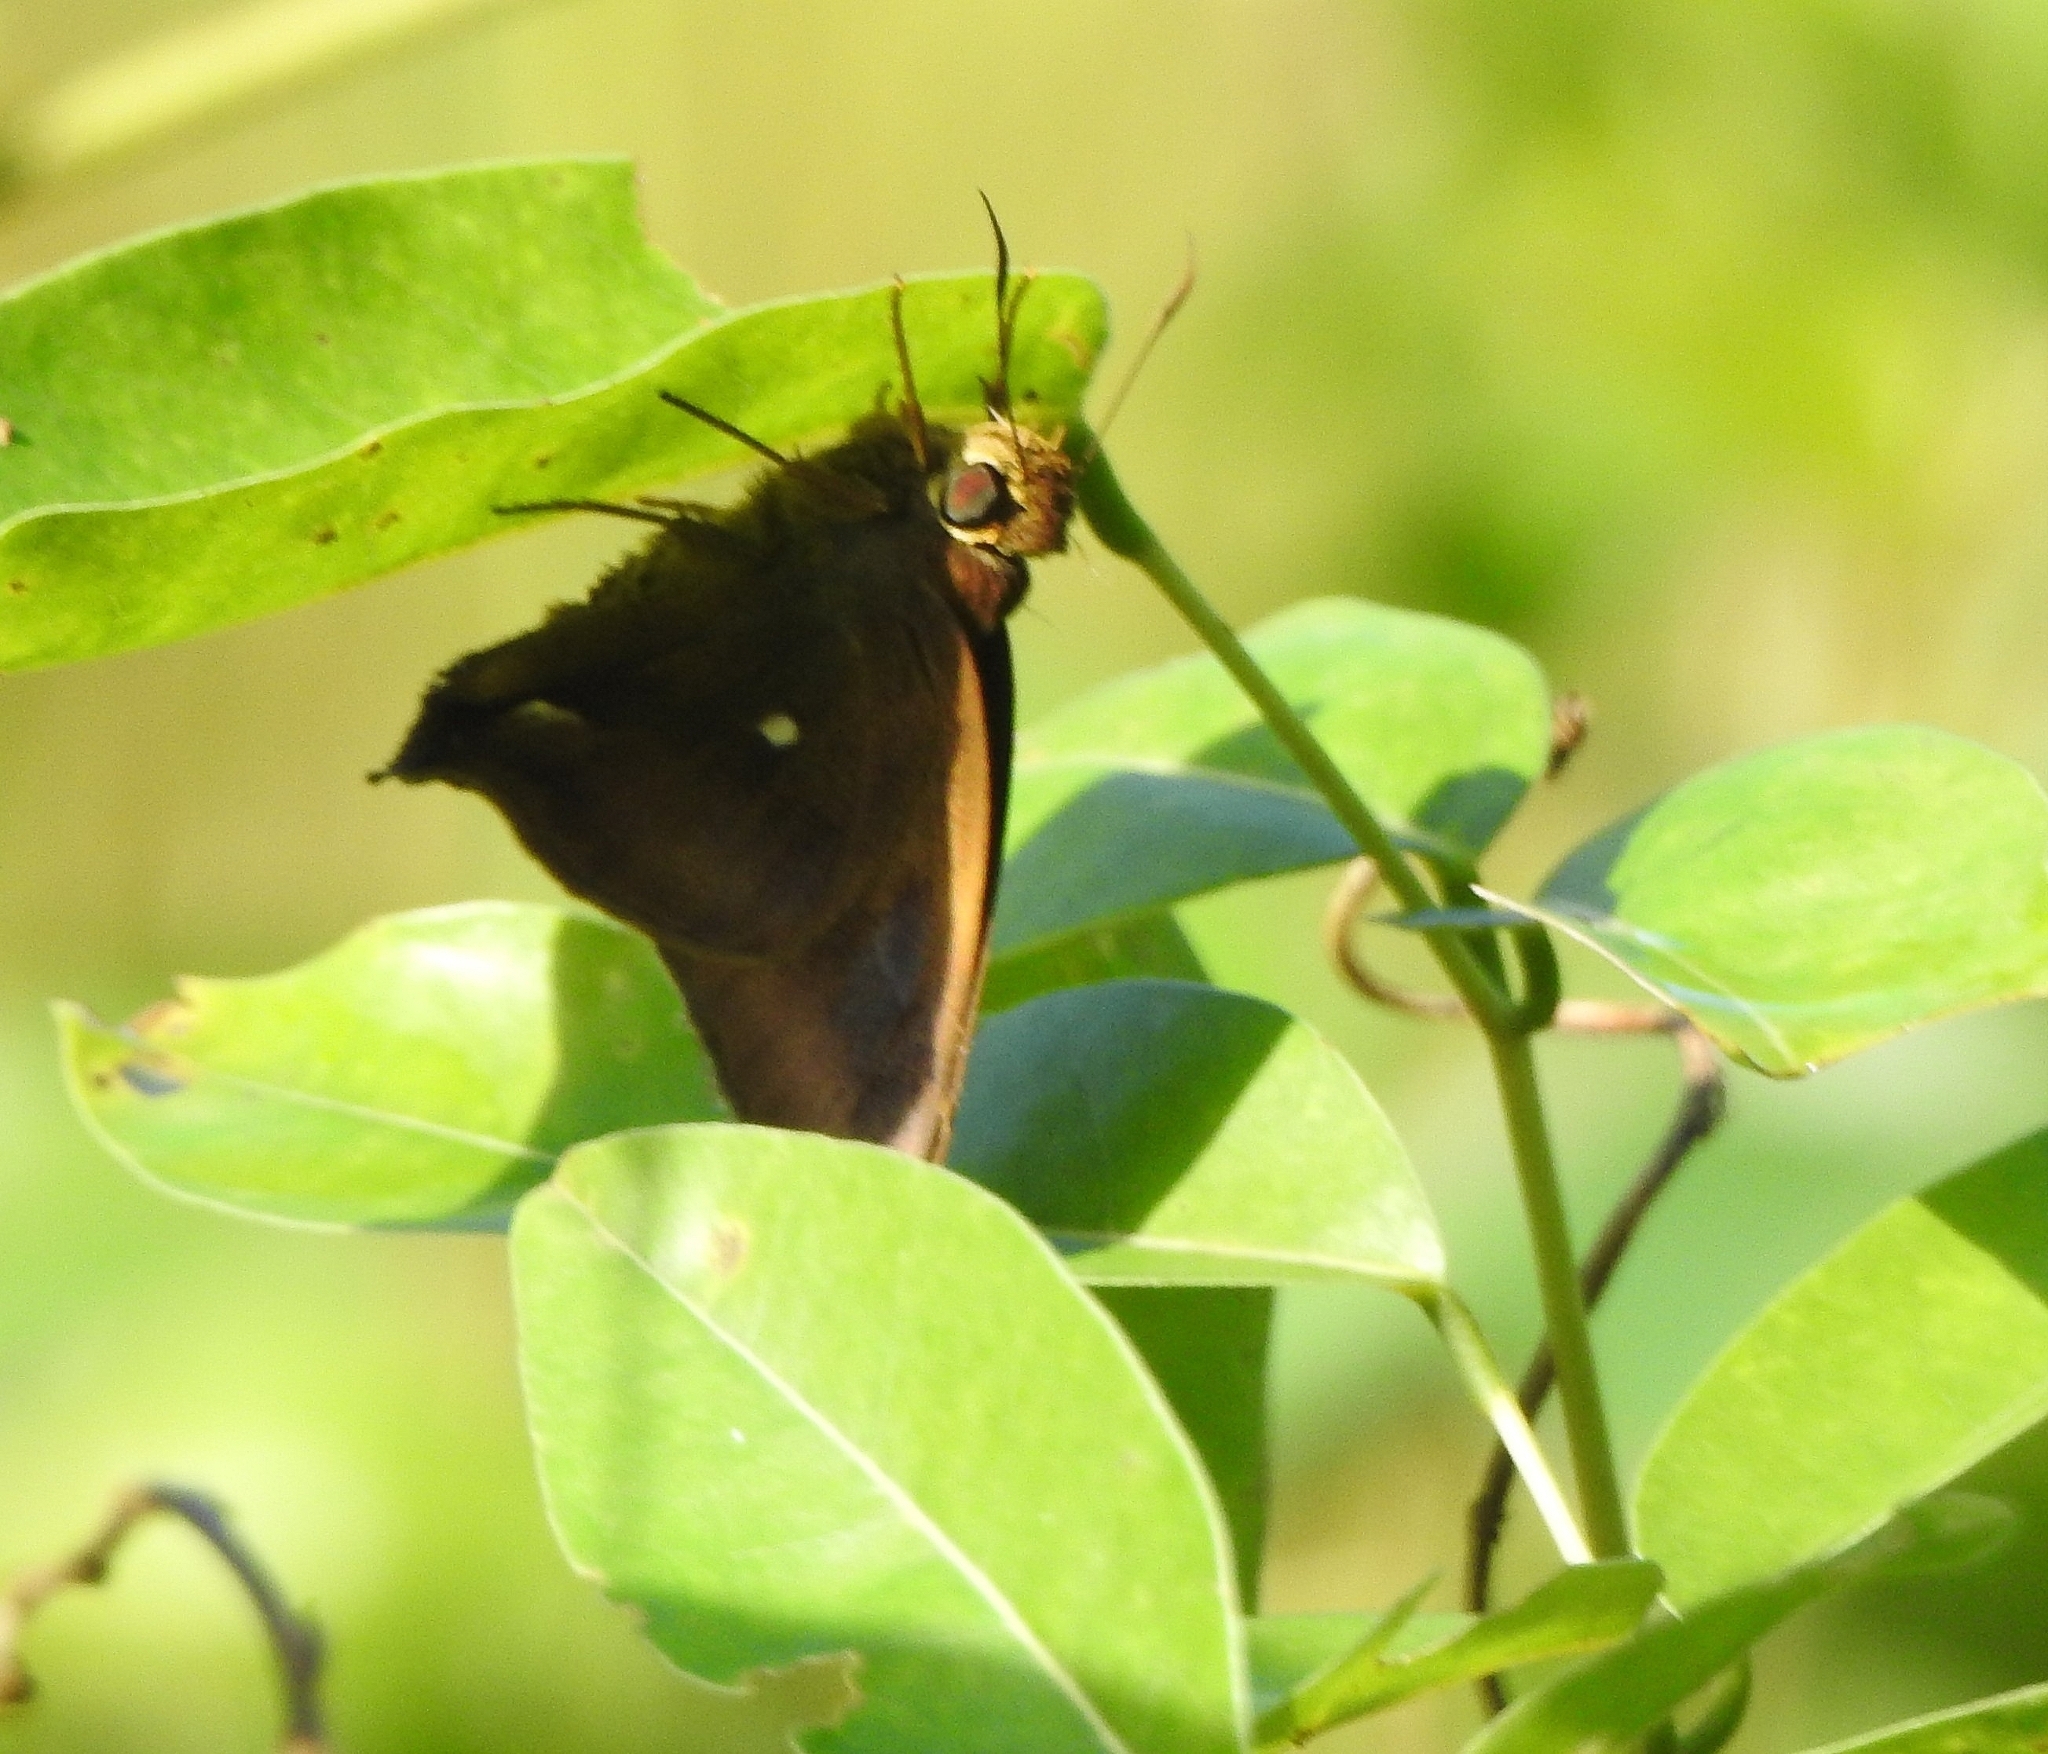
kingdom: Animalia
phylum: Arthropoda
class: Insecta
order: Lepidoptera
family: Hesperiidae
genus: Hasora
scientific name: Hasora badra
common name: Common awl
